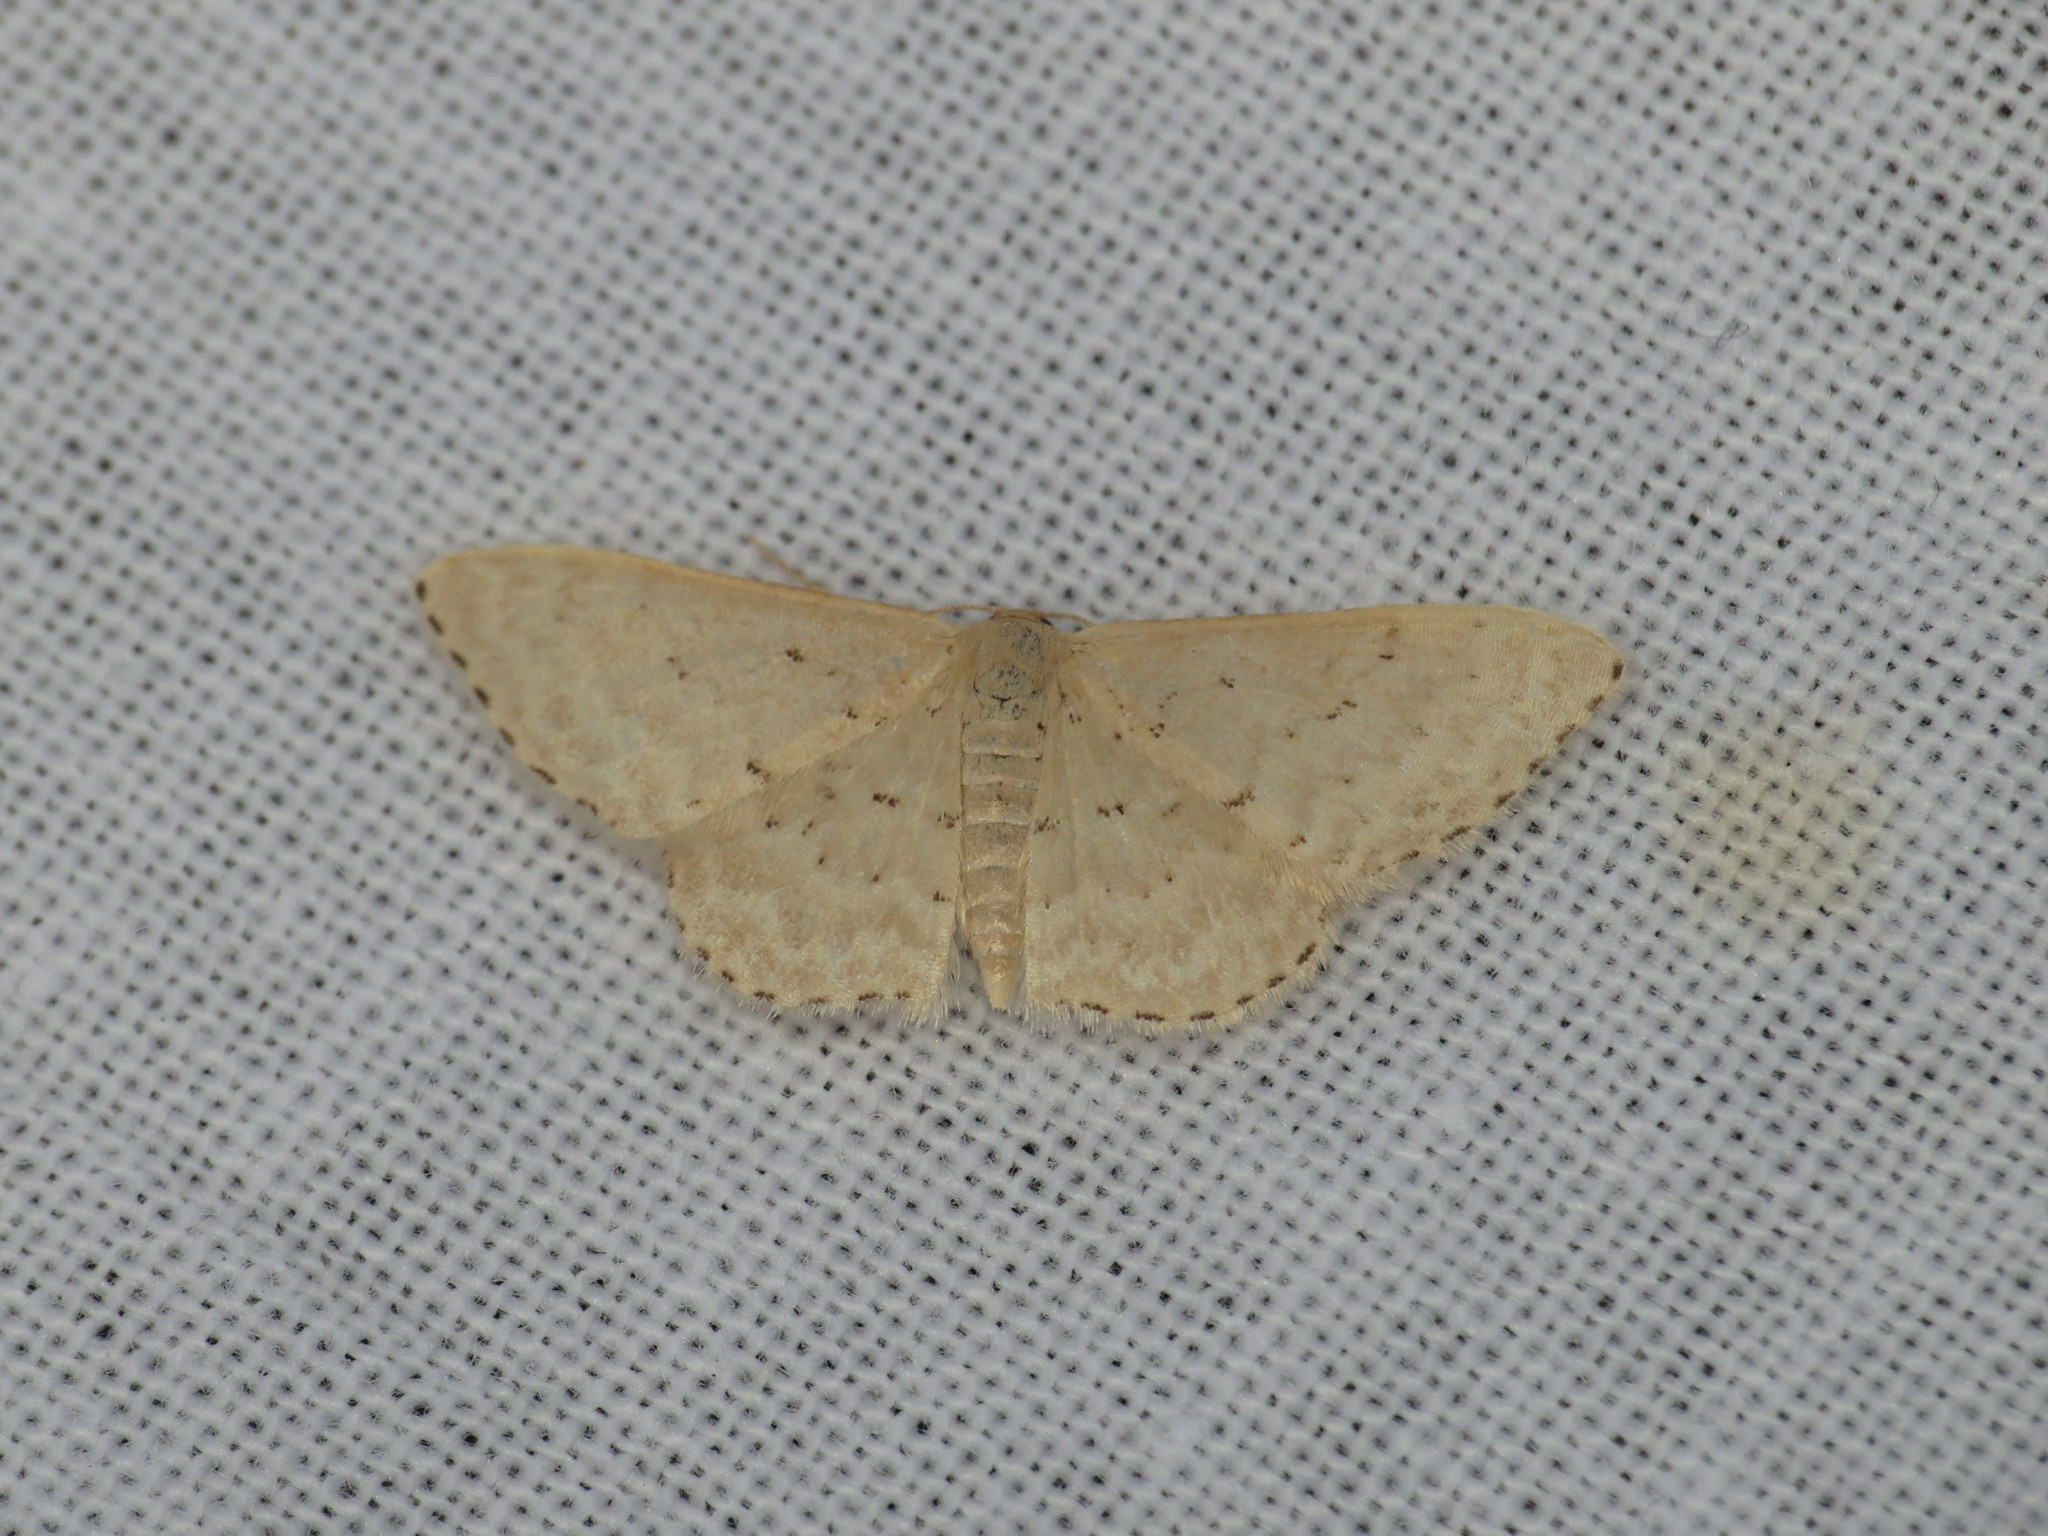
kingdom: Animalia
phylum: Arthropoda
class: Insecta
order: Lepidoptera
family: Geometridae
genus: Idaea
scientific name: Idaea philocosma
